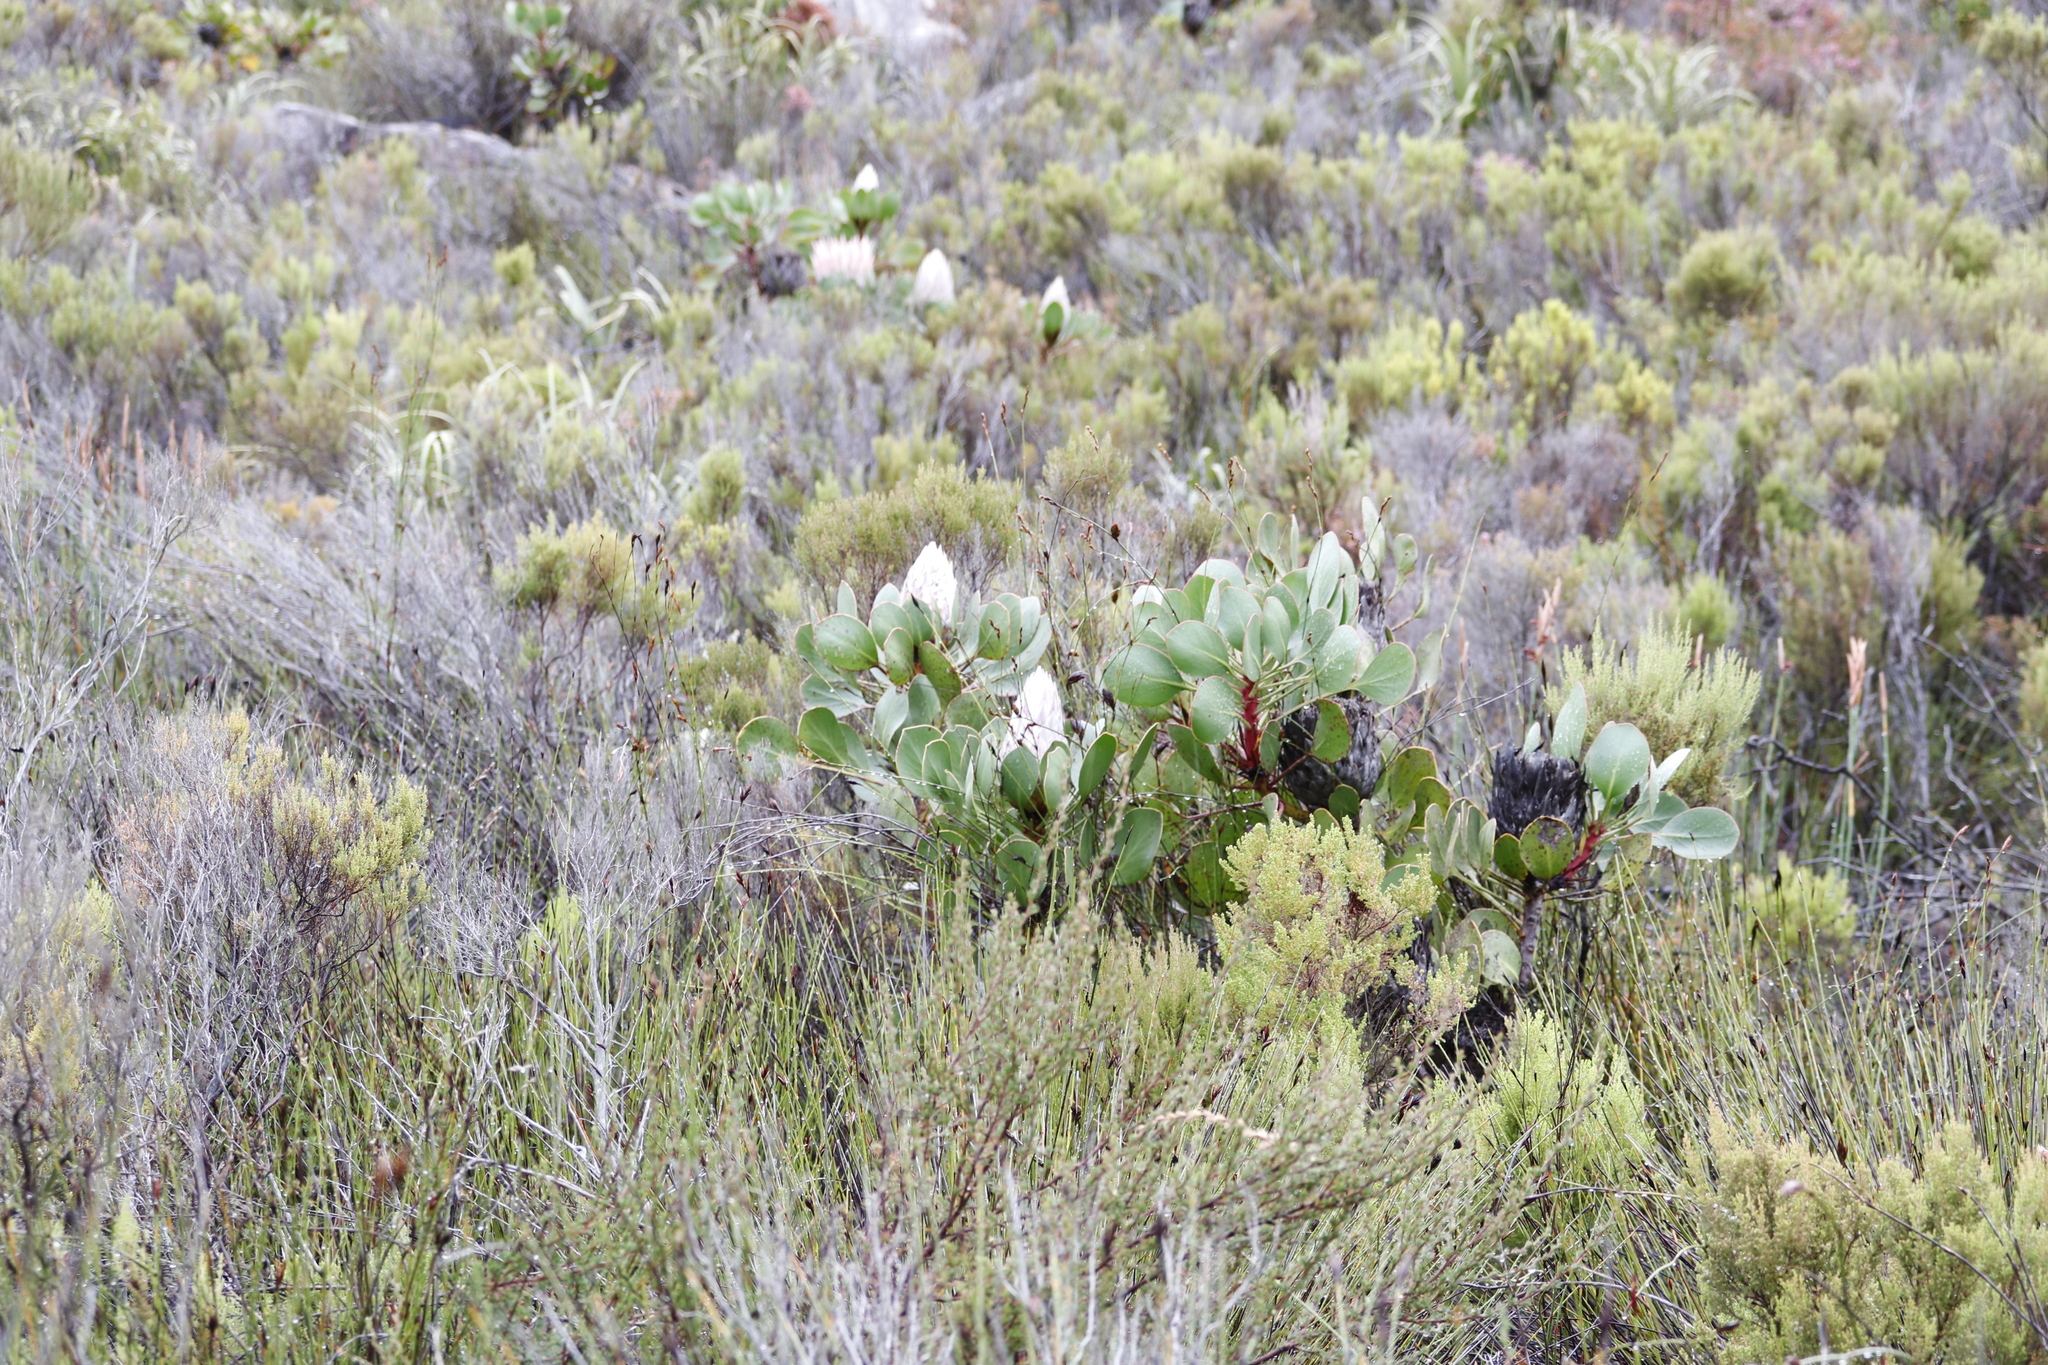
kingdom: Plantae
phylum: Tracheophyta
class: Magnoliopsida
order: Proteales
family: Proteaceae
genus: Protea
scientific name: Protea cynaroides
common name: King protea
